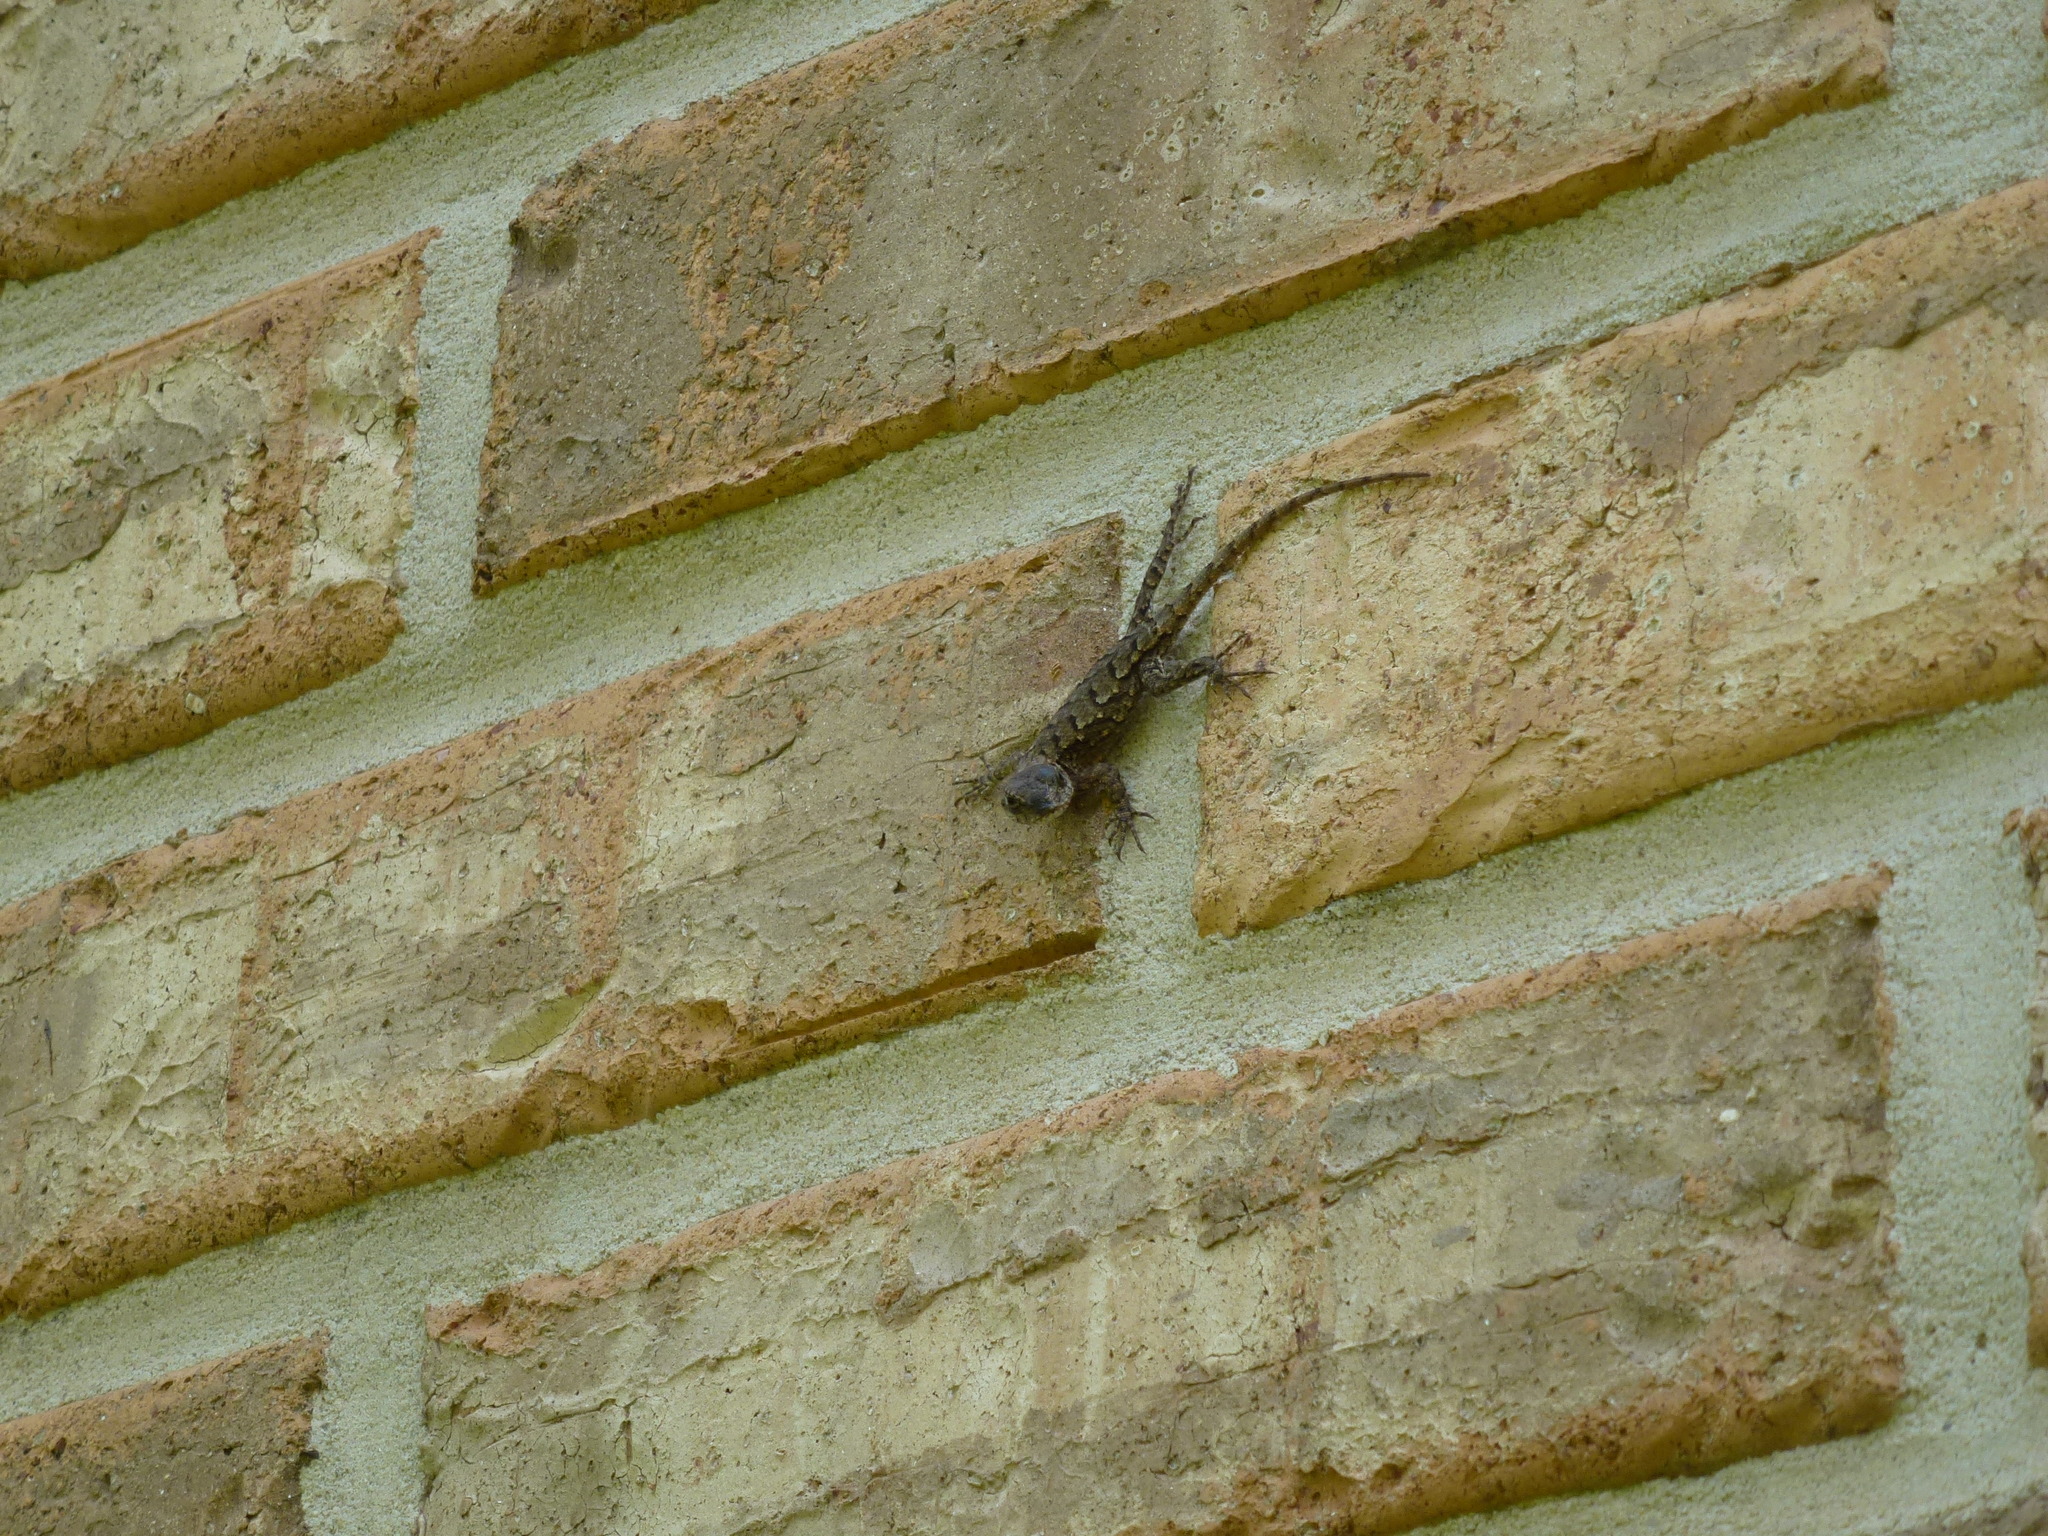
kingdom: Animalia
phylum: Chordata
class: Squamata
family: Phrynosomatidae
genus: Sceloporus
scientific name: Sceloporus undulatus
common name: Eastern fence lizard
